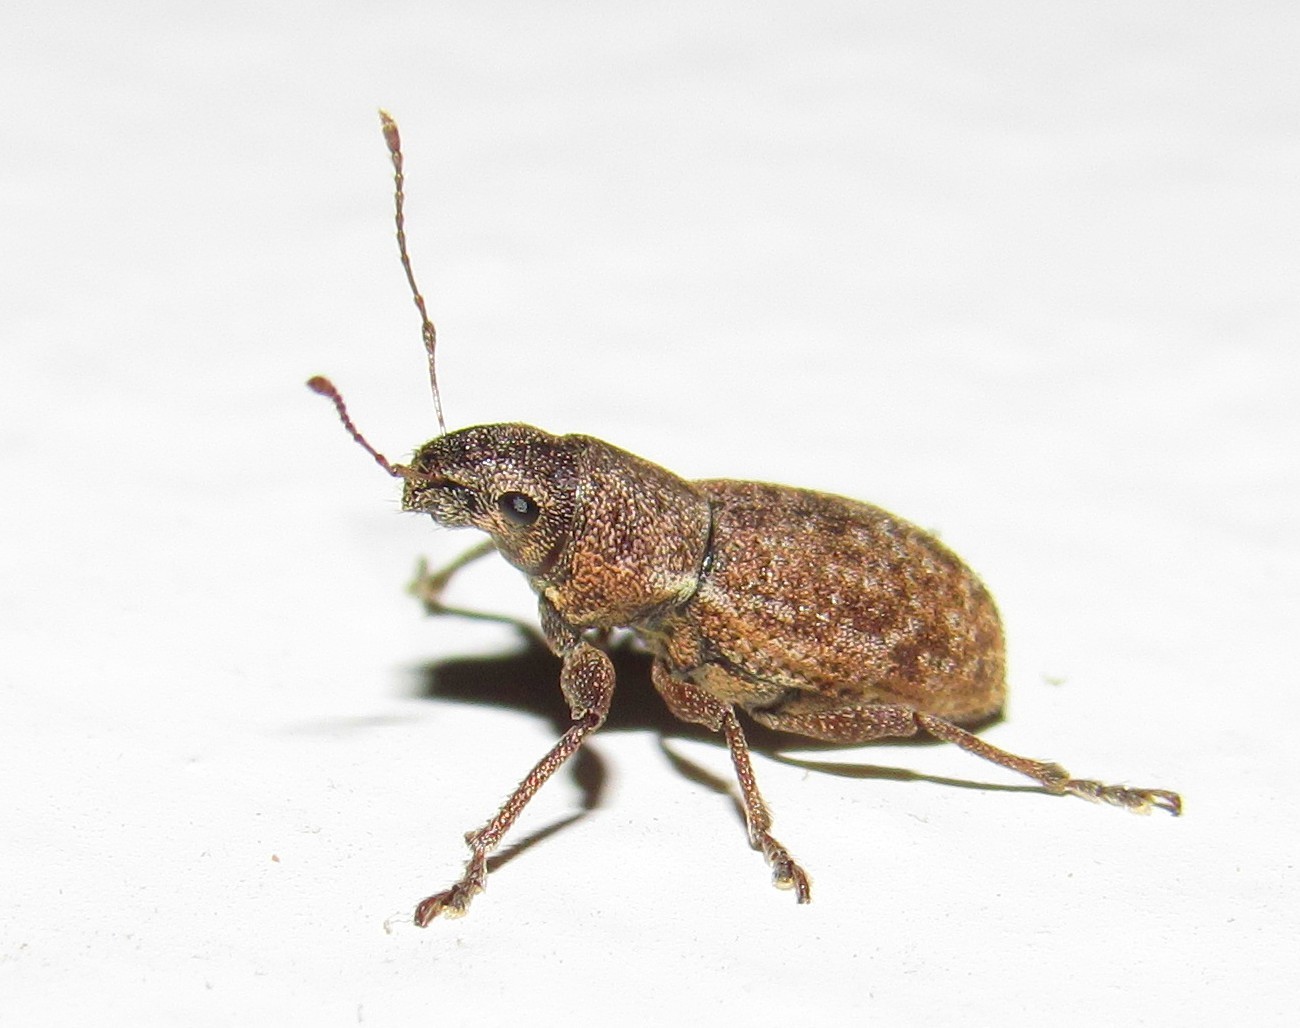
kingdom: Animalia
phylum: Arthropoda
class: Insecta
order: Coleoptera
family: Curculionidae
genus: Naupactus
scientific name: Naupactus cervinus
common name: Fuller rose beetle
